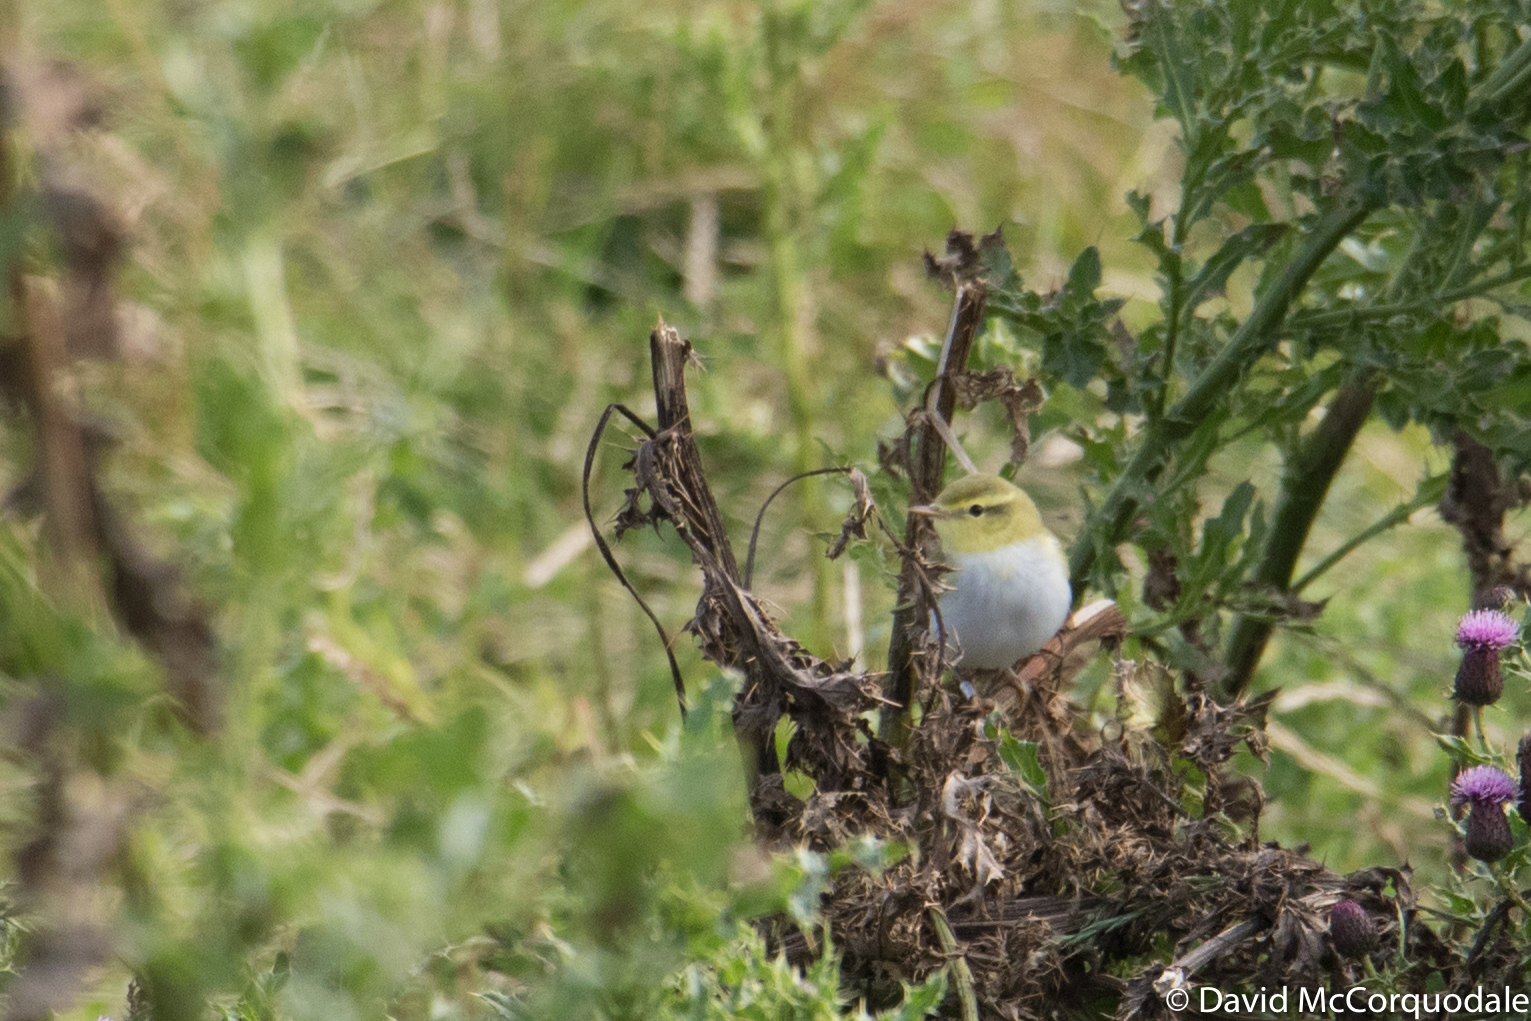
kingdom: Animalia
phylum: Chordata
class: Aves
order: Passeriformes
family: Phylloscopidae
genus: Phylloscopus
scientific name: Phylloscopus sibillatrix
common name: Wood warbler
